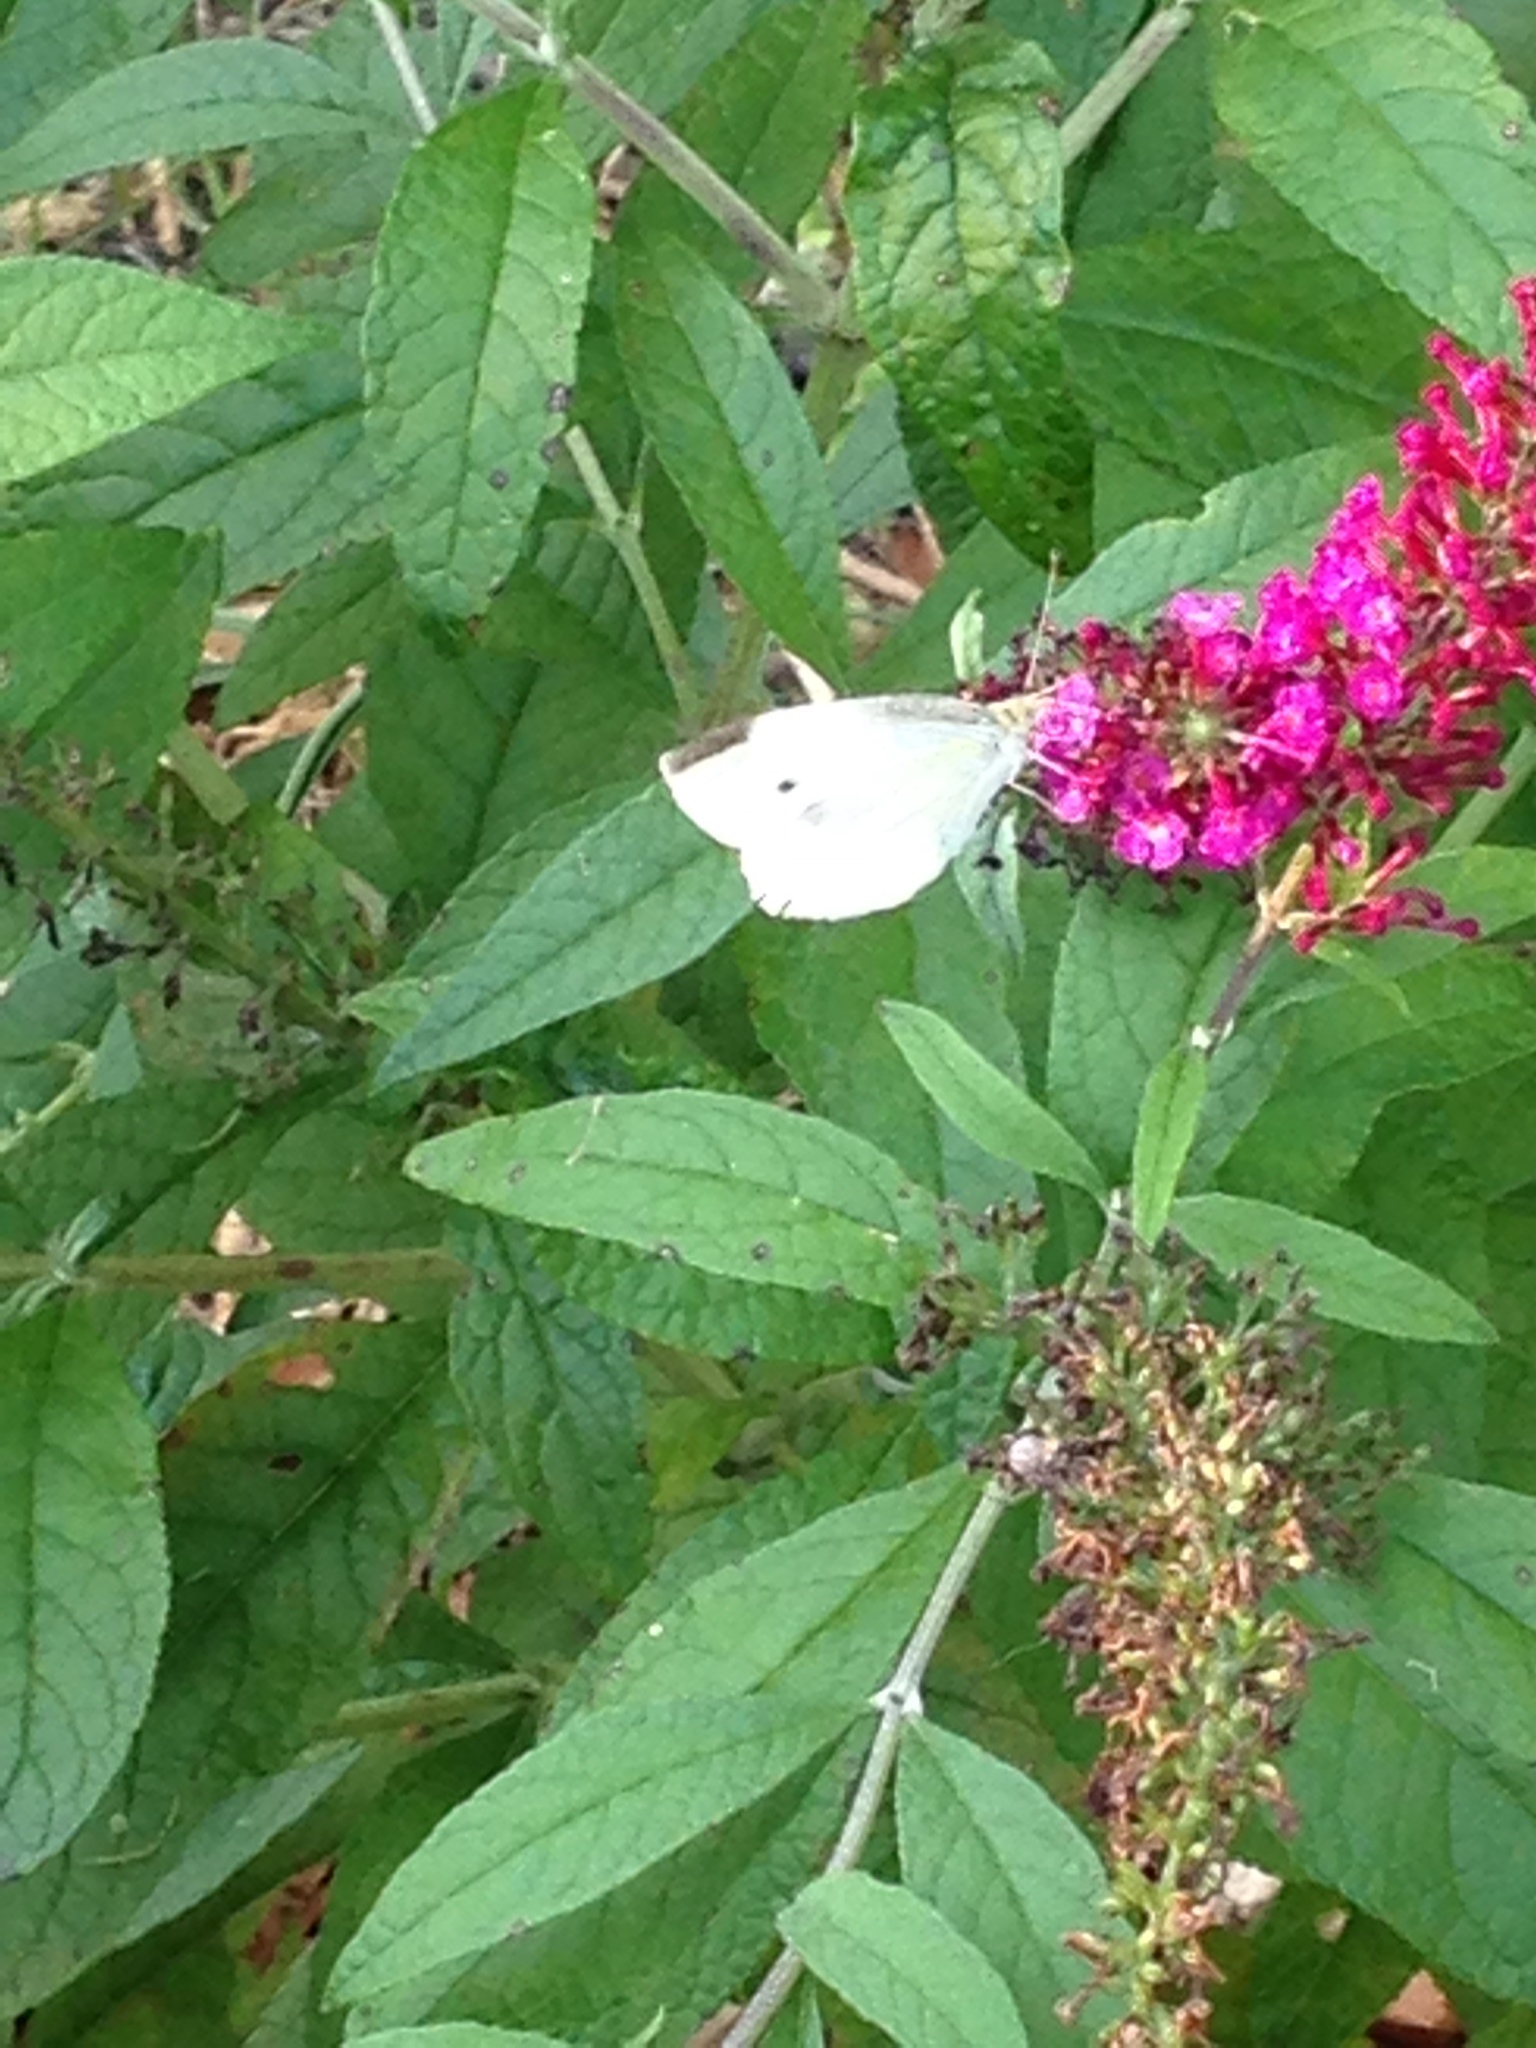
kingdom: Animalia
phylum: Arthropoda
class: Insecta
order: Lepidoptera
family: Pieridae
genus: Pieris
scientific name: Pieris rapae
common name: Small white
